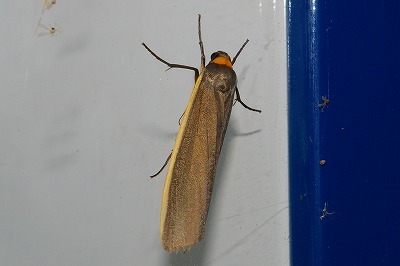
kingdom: Animalia
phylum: Arthropoda
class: Insecta
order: Lepidoptera
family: Erebidae
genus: Ghoria
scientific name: Ghoria collitoides
